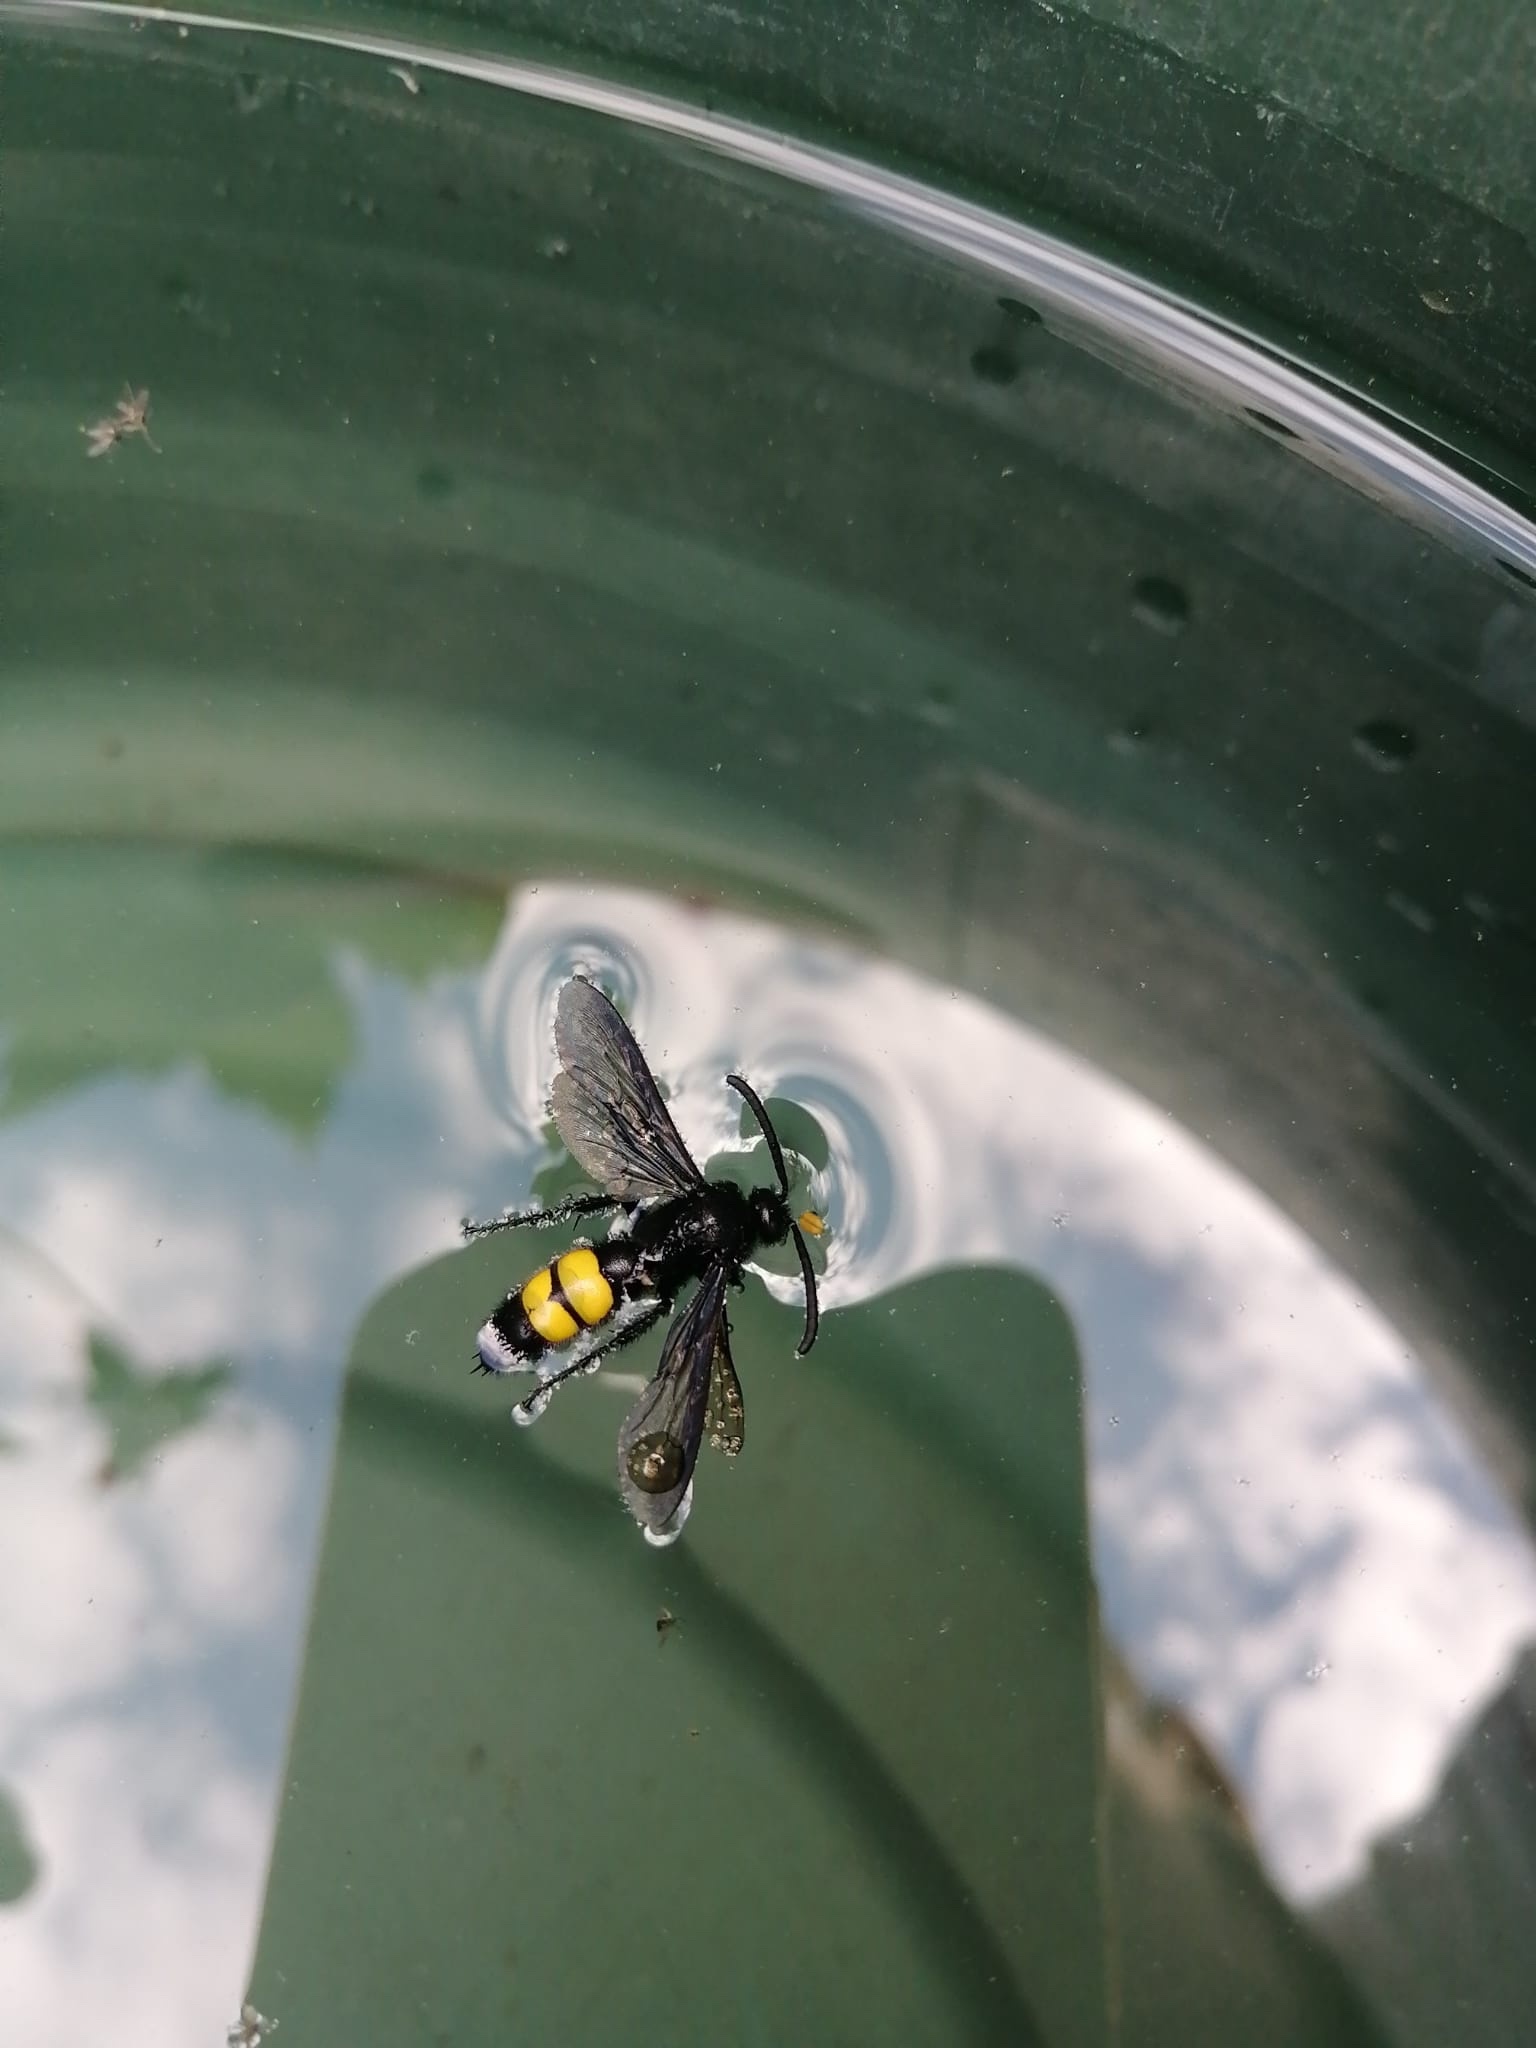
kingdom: Animalia
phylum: Arthropoda
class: Insecta
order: Hymenoptera
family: Scoliidae
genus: Scolia
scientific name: Scolia hirta
